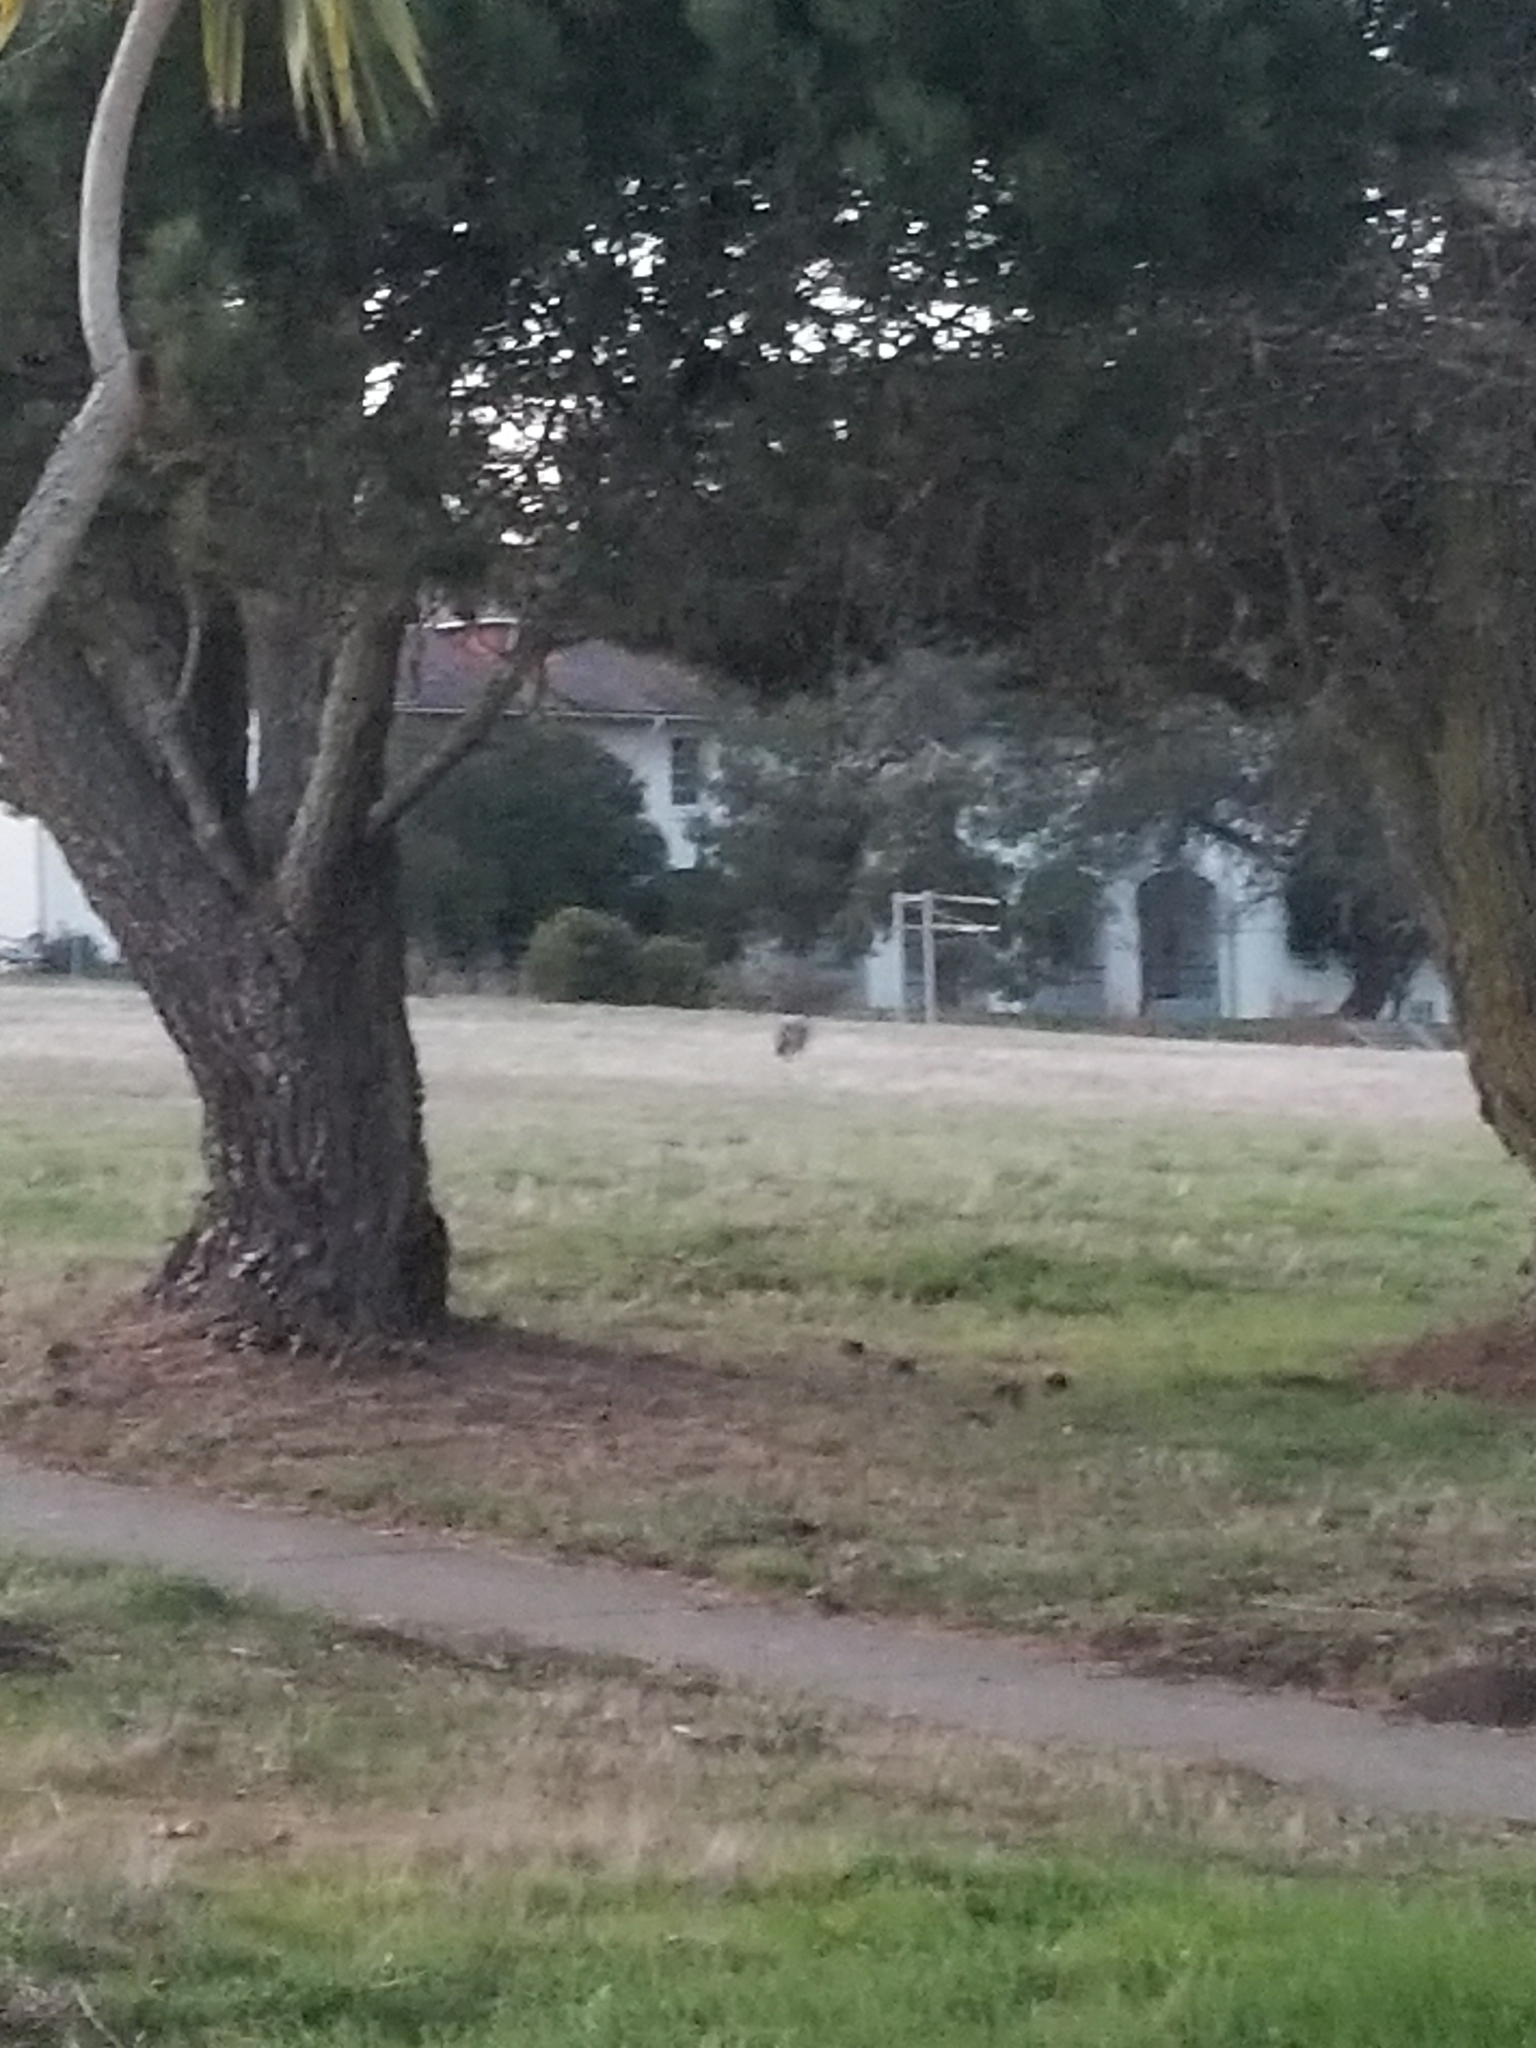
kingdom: Animalia
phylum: Chordata
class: Mammalia
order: Carnivora
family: Canidae
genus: Canis
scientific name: Canis latrans
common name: Coyote
